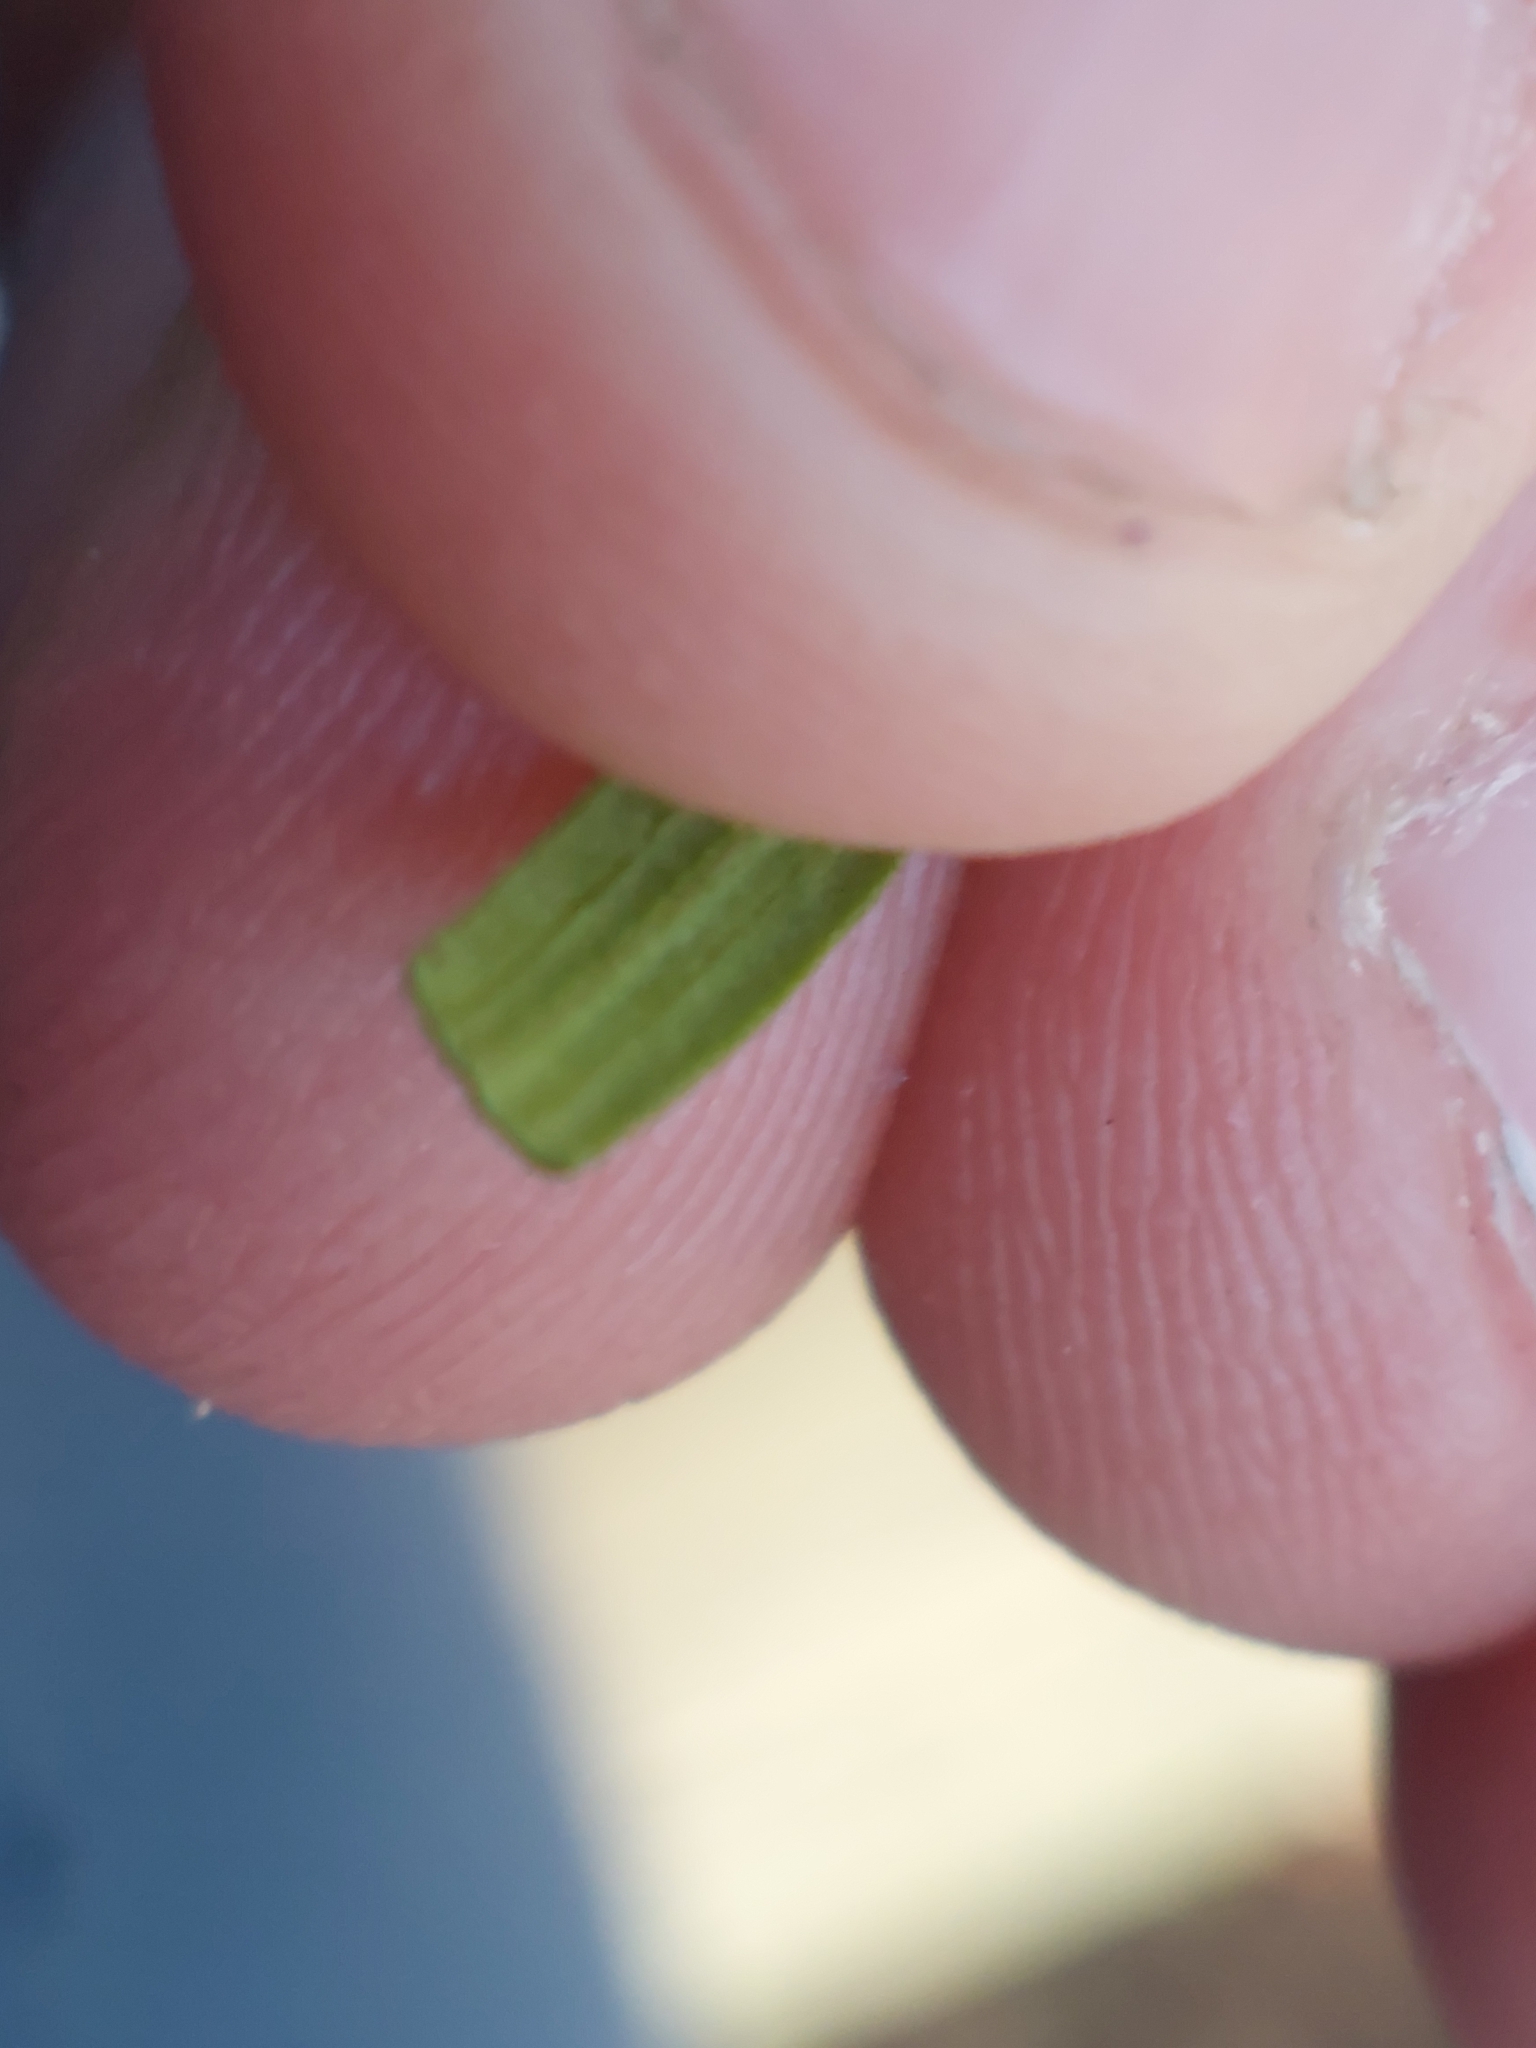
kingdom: Plantae
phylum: Tracheophyta
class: Magnoliopsida
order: Gentianales
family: Rubiaceae
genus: Galium
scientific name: Galium boreale
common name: Northern bedstraw
